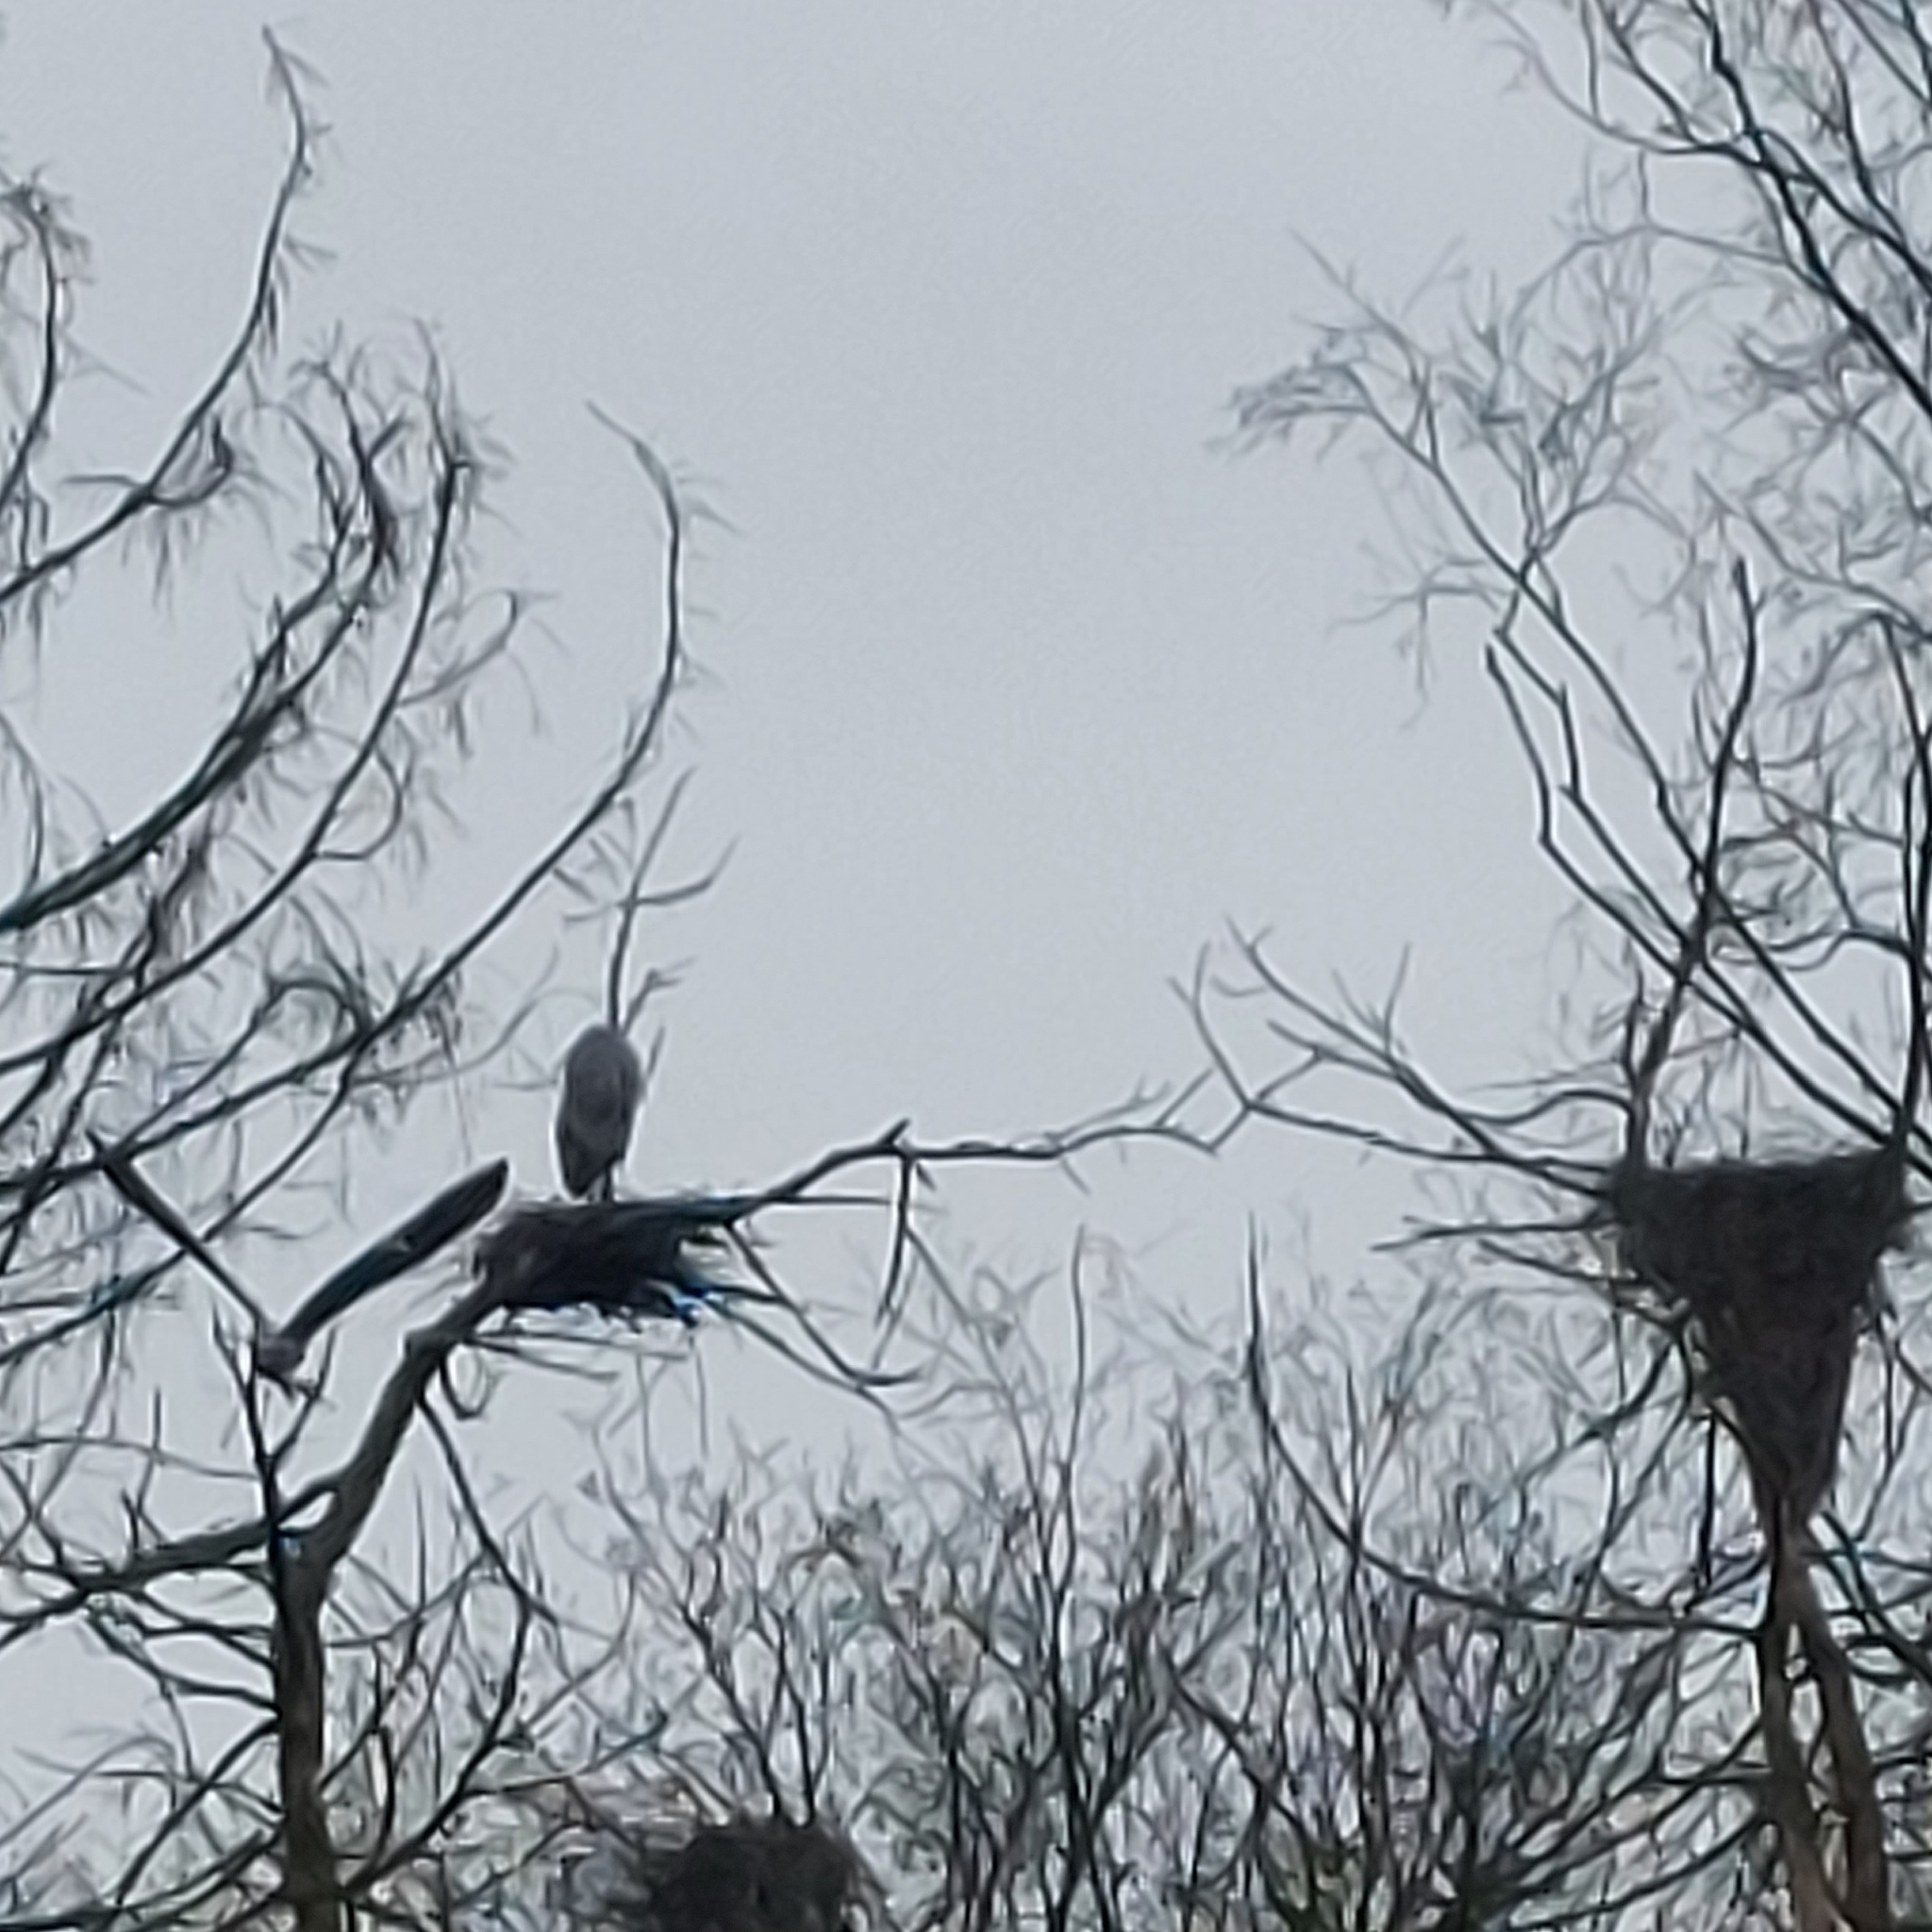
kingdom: Animalia
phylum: Chordata
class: Aves
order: Pelecaniformes
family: Ardeidae
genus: Ardea
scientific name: Ardea cinerea
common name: Grey heron
